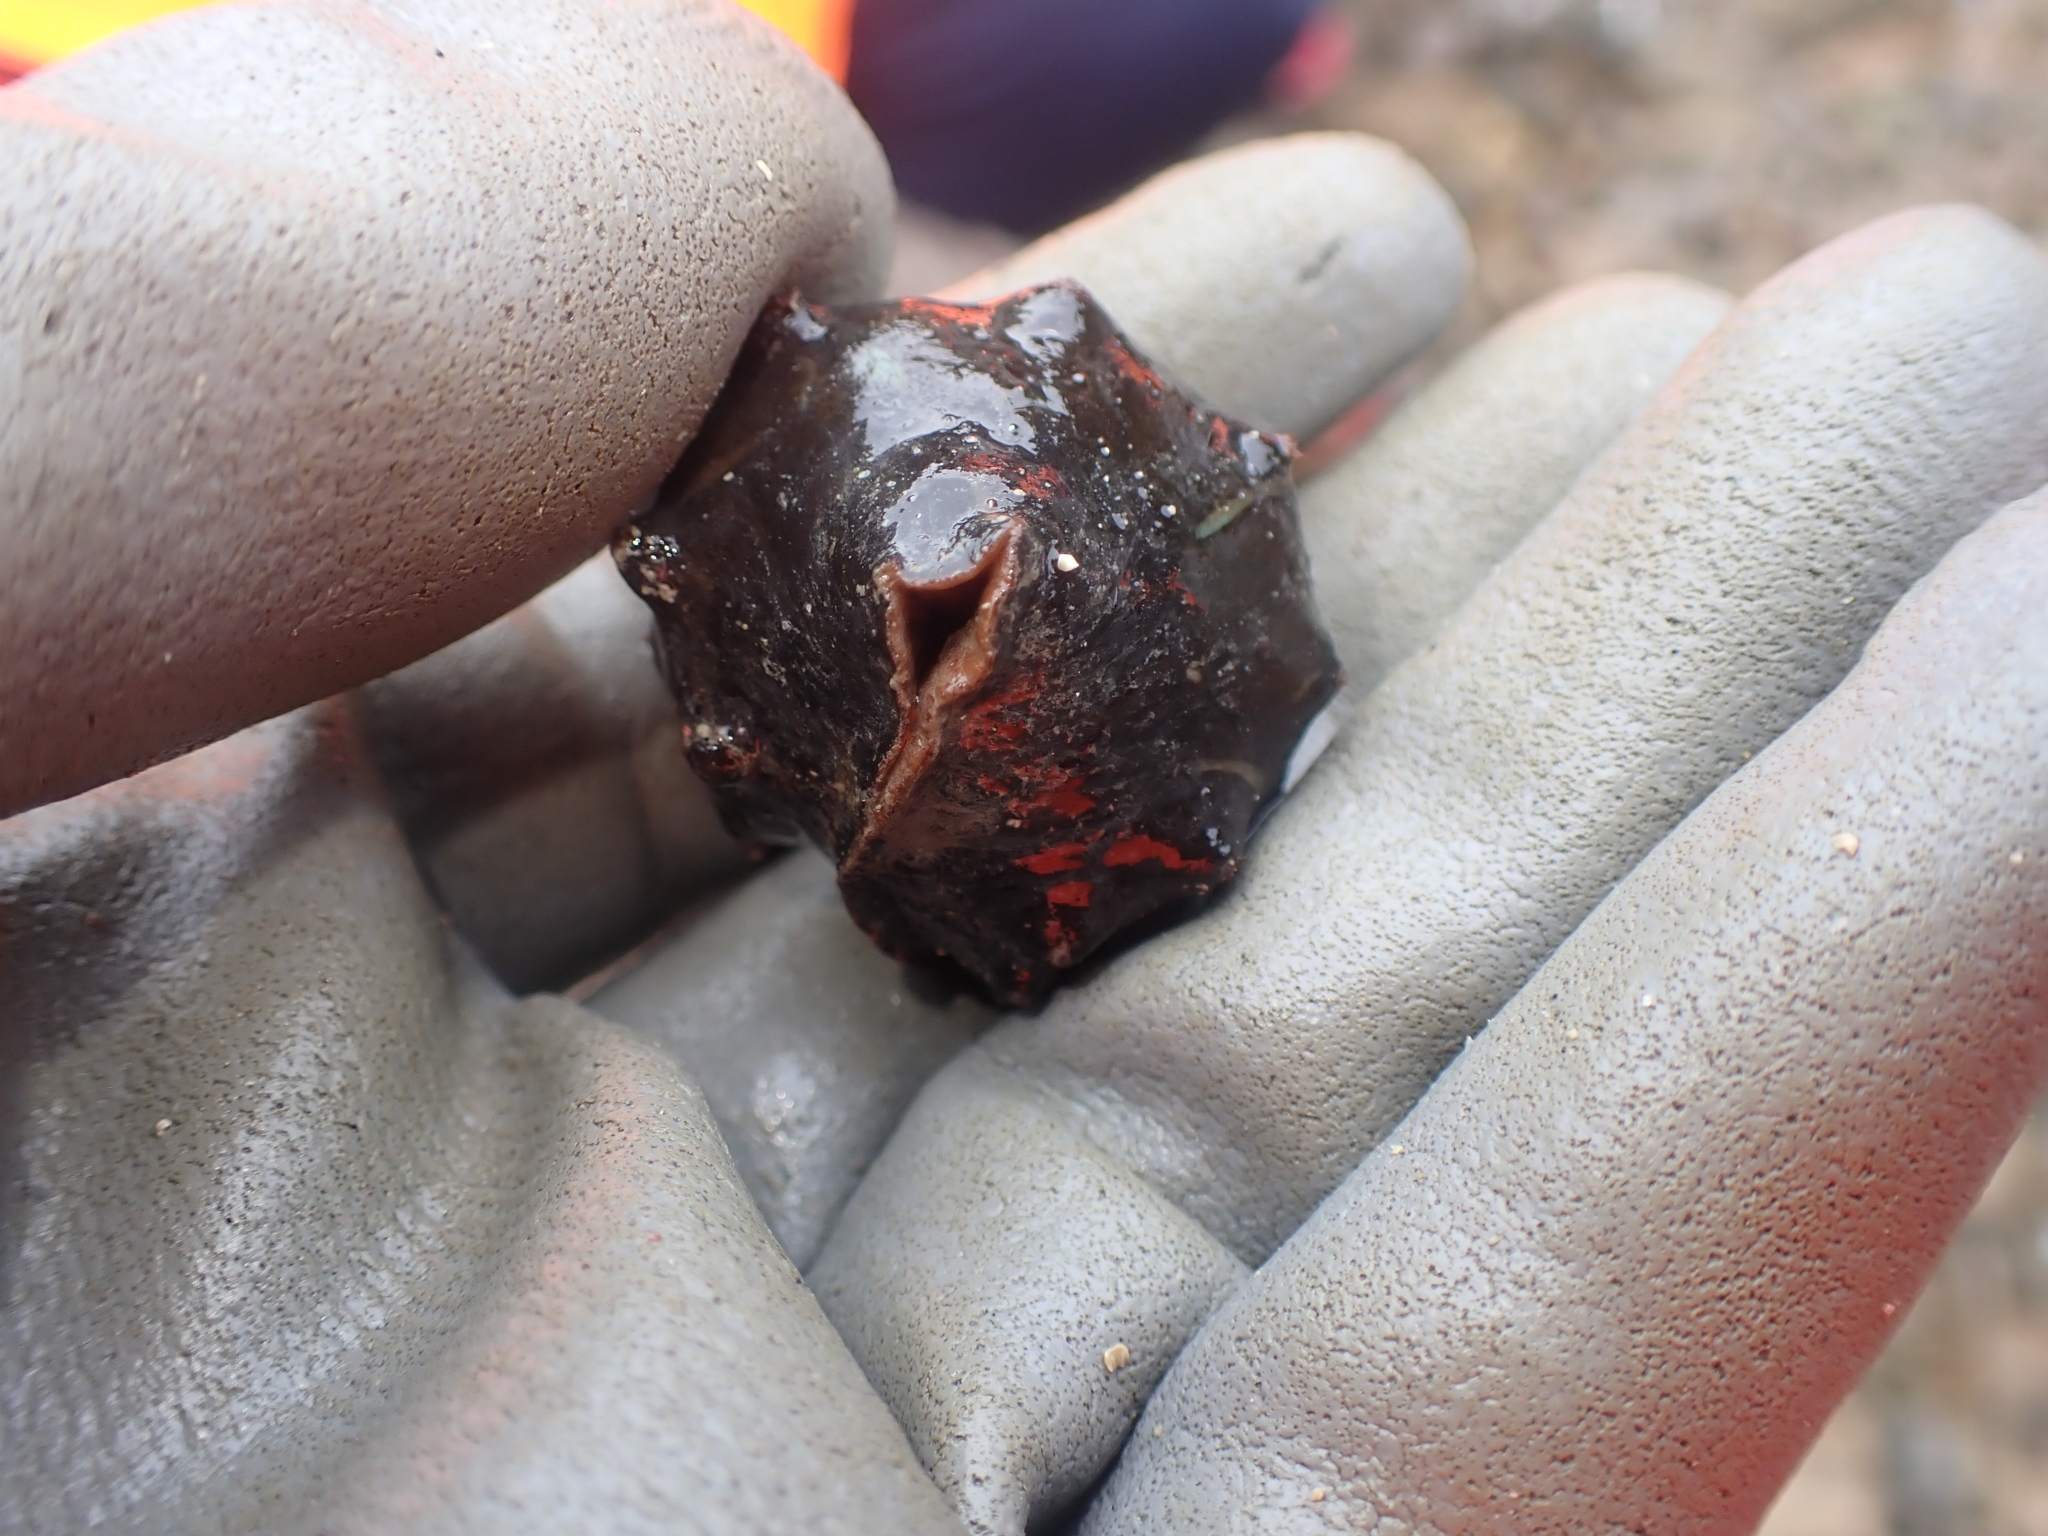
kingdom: Animalia
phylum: Mollusca
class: Polyplacophora
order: Chitonida
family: Acanthochitonidae
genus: Cryptoconchus
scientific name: Cryptoconchus porosus
